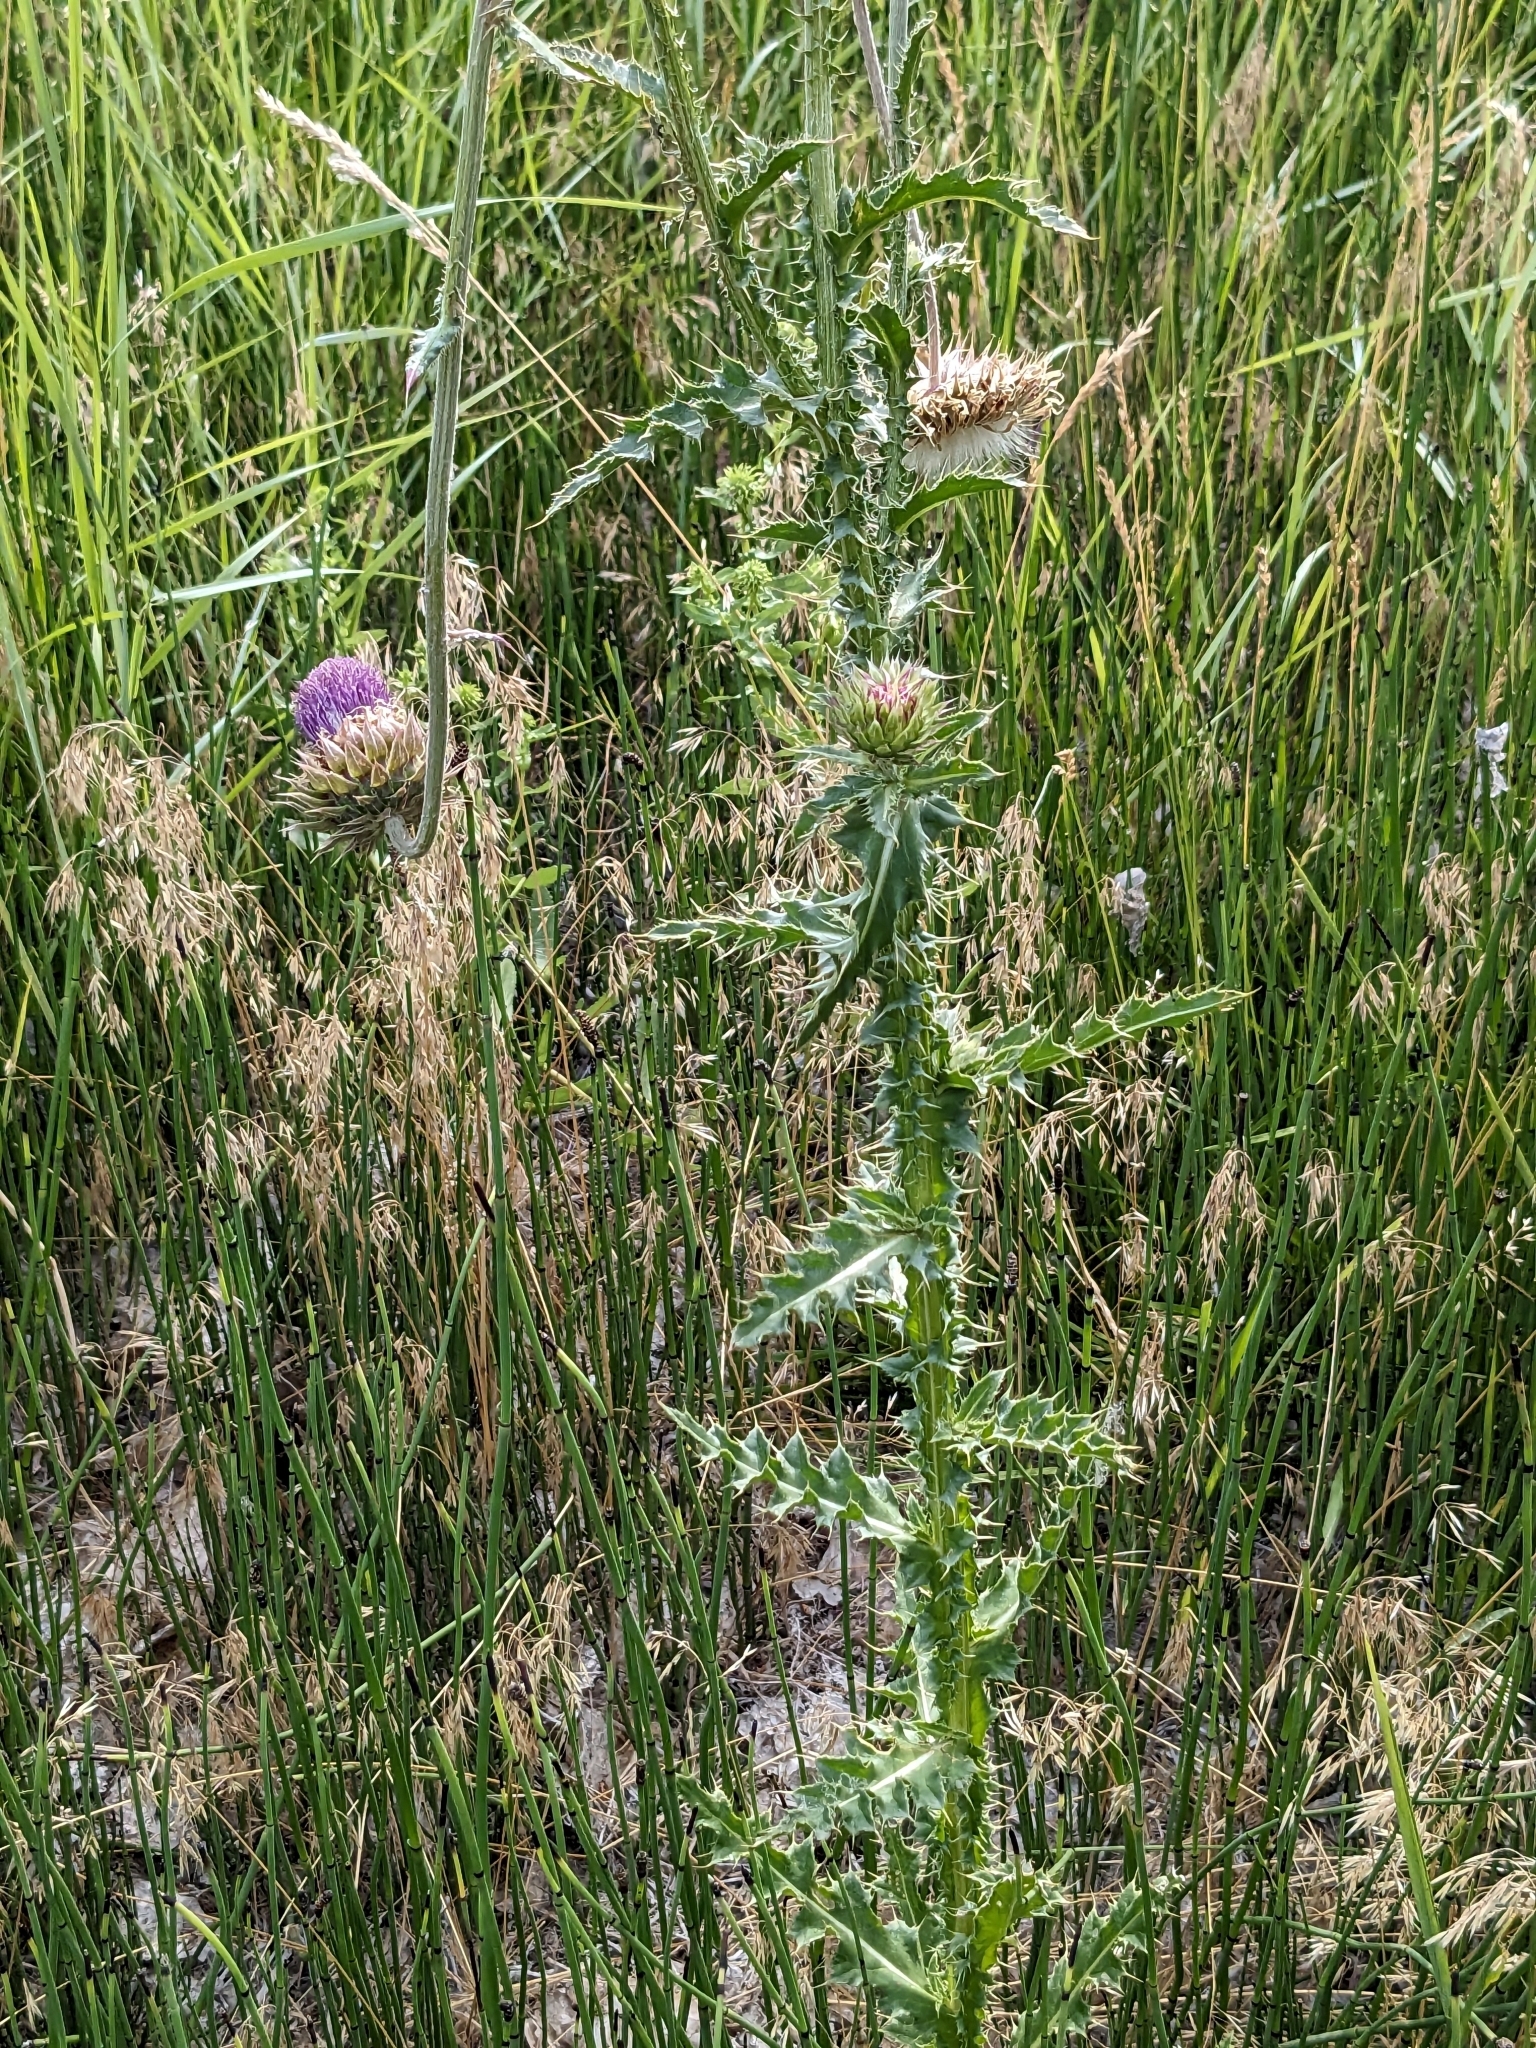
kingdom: Plantae
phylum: Tracheophyta
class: Magnoliopsida
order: Asterales
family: Asteraceae
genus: Carduus
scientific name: Carduus nutans
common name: Musk thistle
